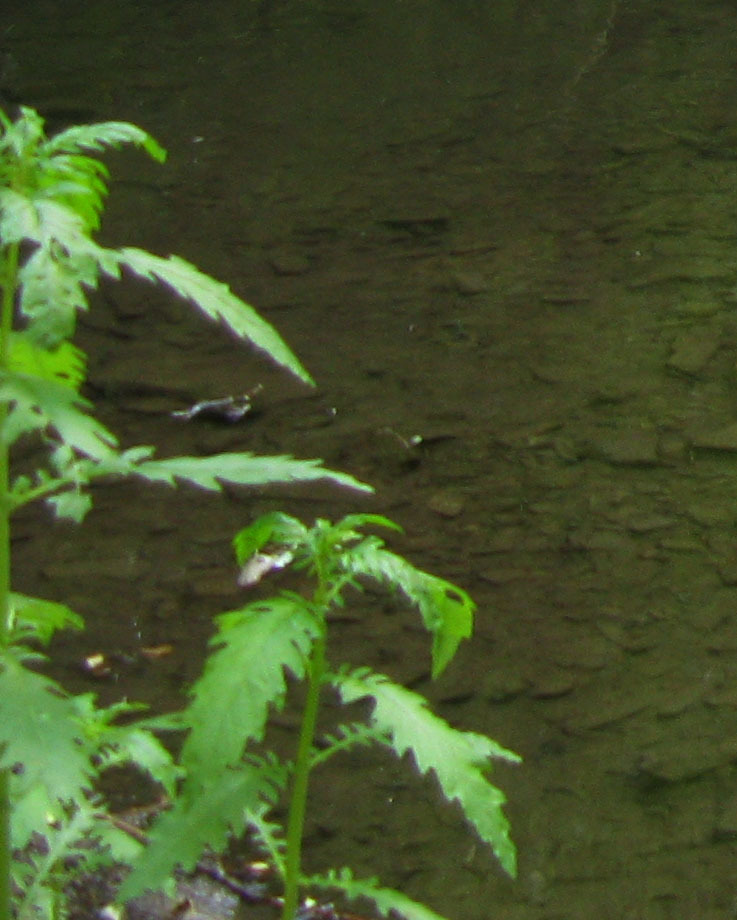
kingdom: Plantae
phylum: Tracheophyta
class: Magnoliopsida
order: Lamiales
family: Lamiaceae
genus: Lycopus
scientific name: Lycopus europaeus
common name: European bugleweed
